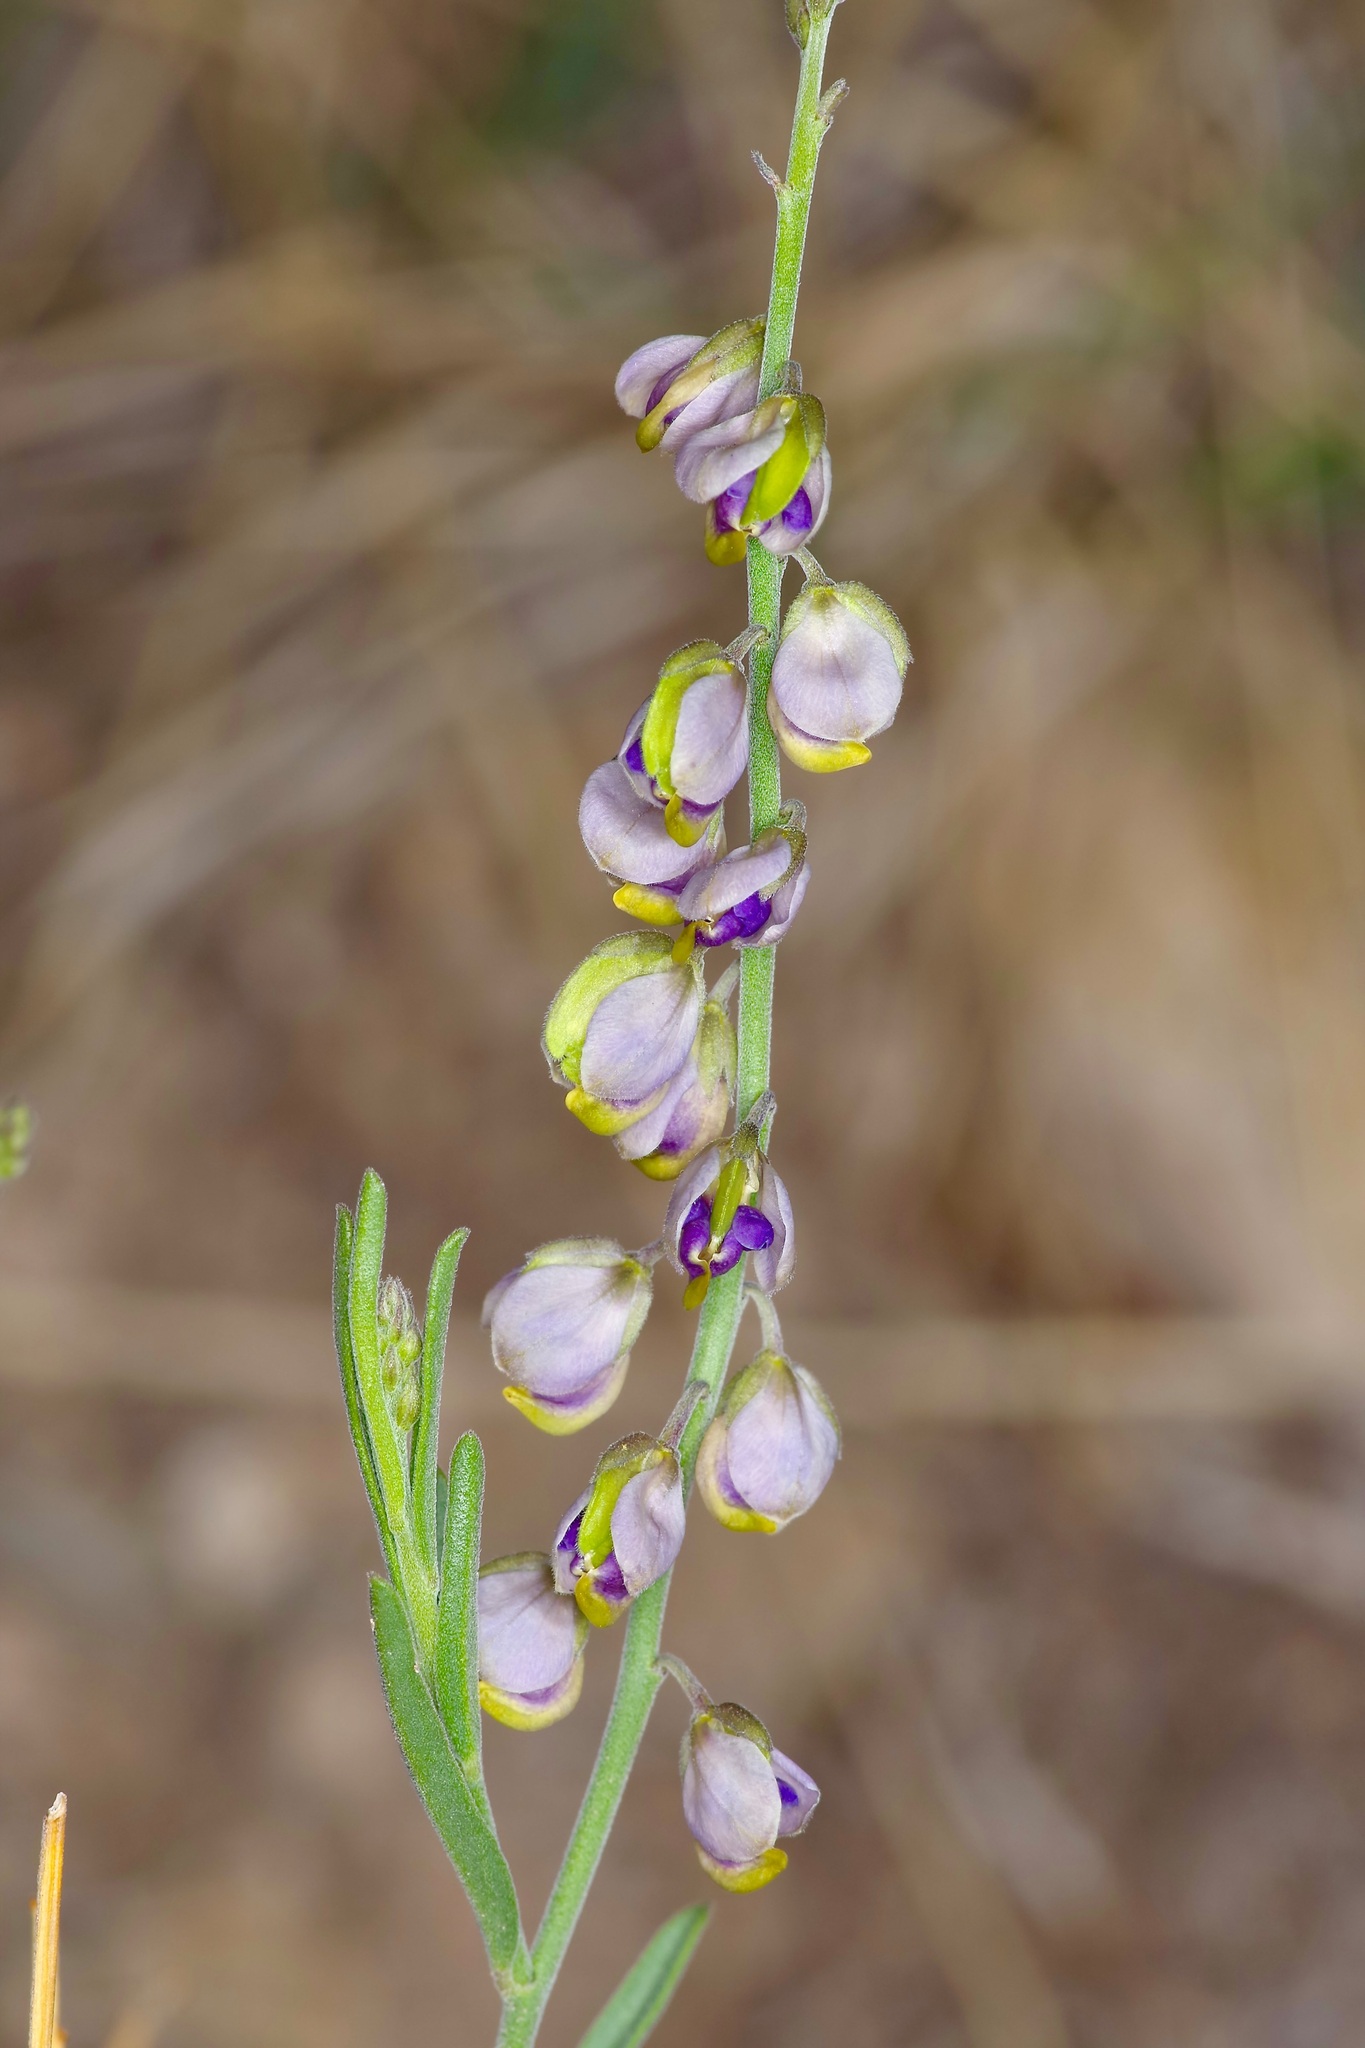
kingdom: Plantae
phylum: Tracheophyta
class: Magnoliopsida
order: Fabales
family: Polygalaceae
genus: Hebecarpa
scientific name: Hebecarpa barbeyana
